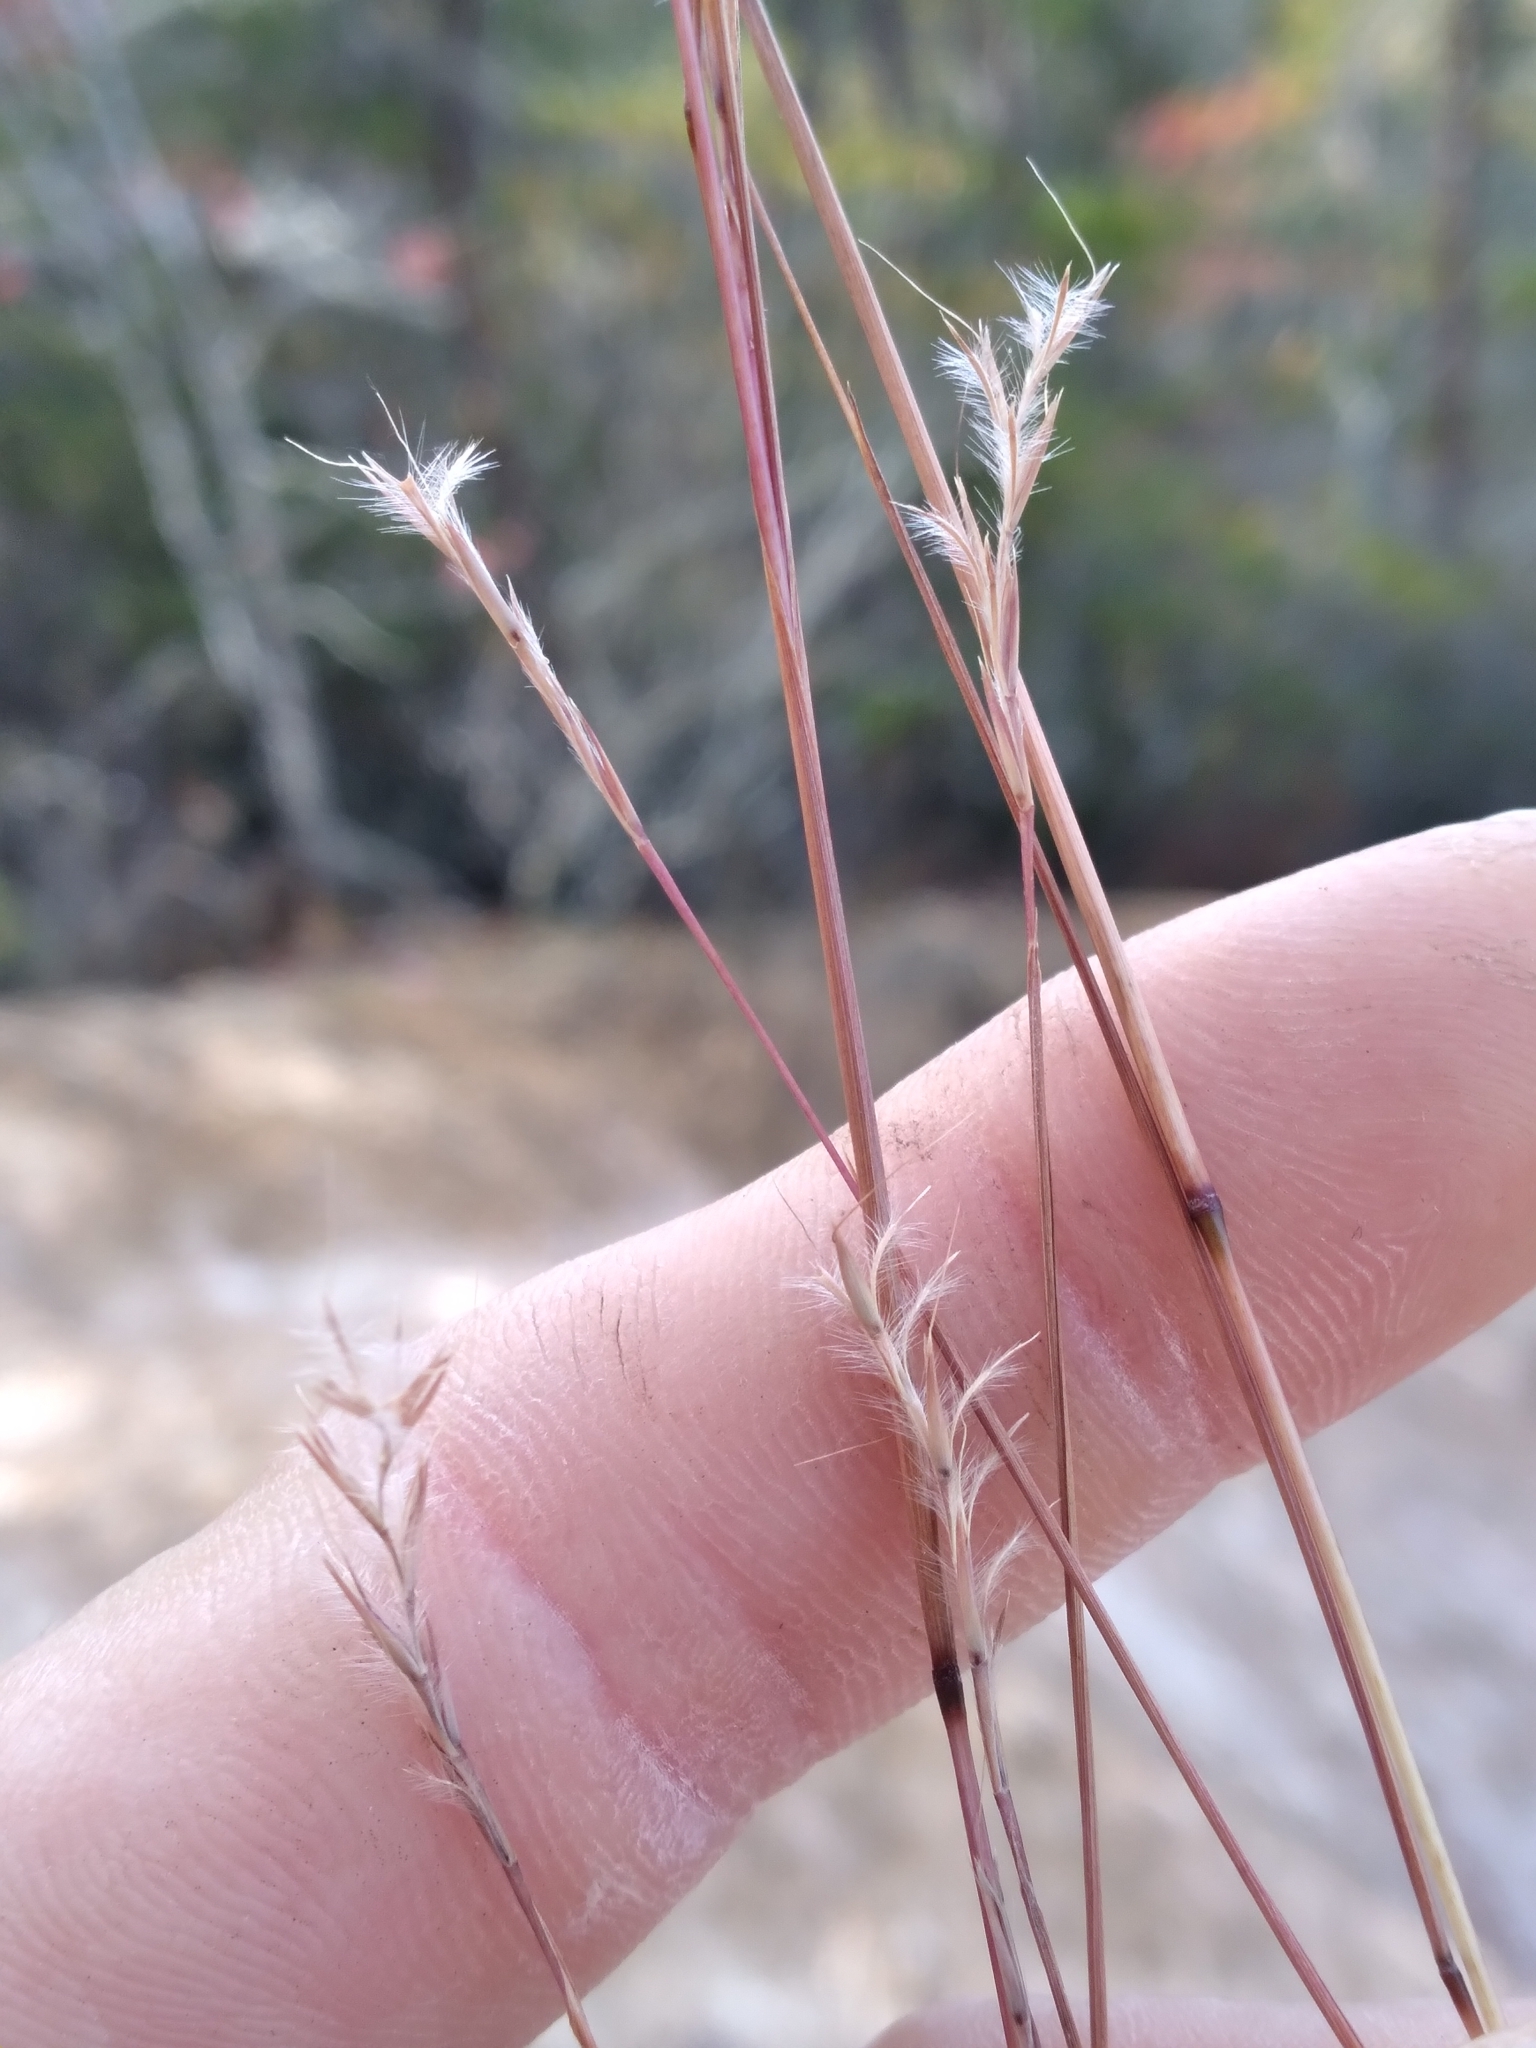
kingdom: Plantae
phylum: Tracheophyta
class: Liliopsida
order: Poales
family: Poaceae
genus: Schizachyrium
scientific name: Schizachyrium scoparium
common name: Little bluestem
